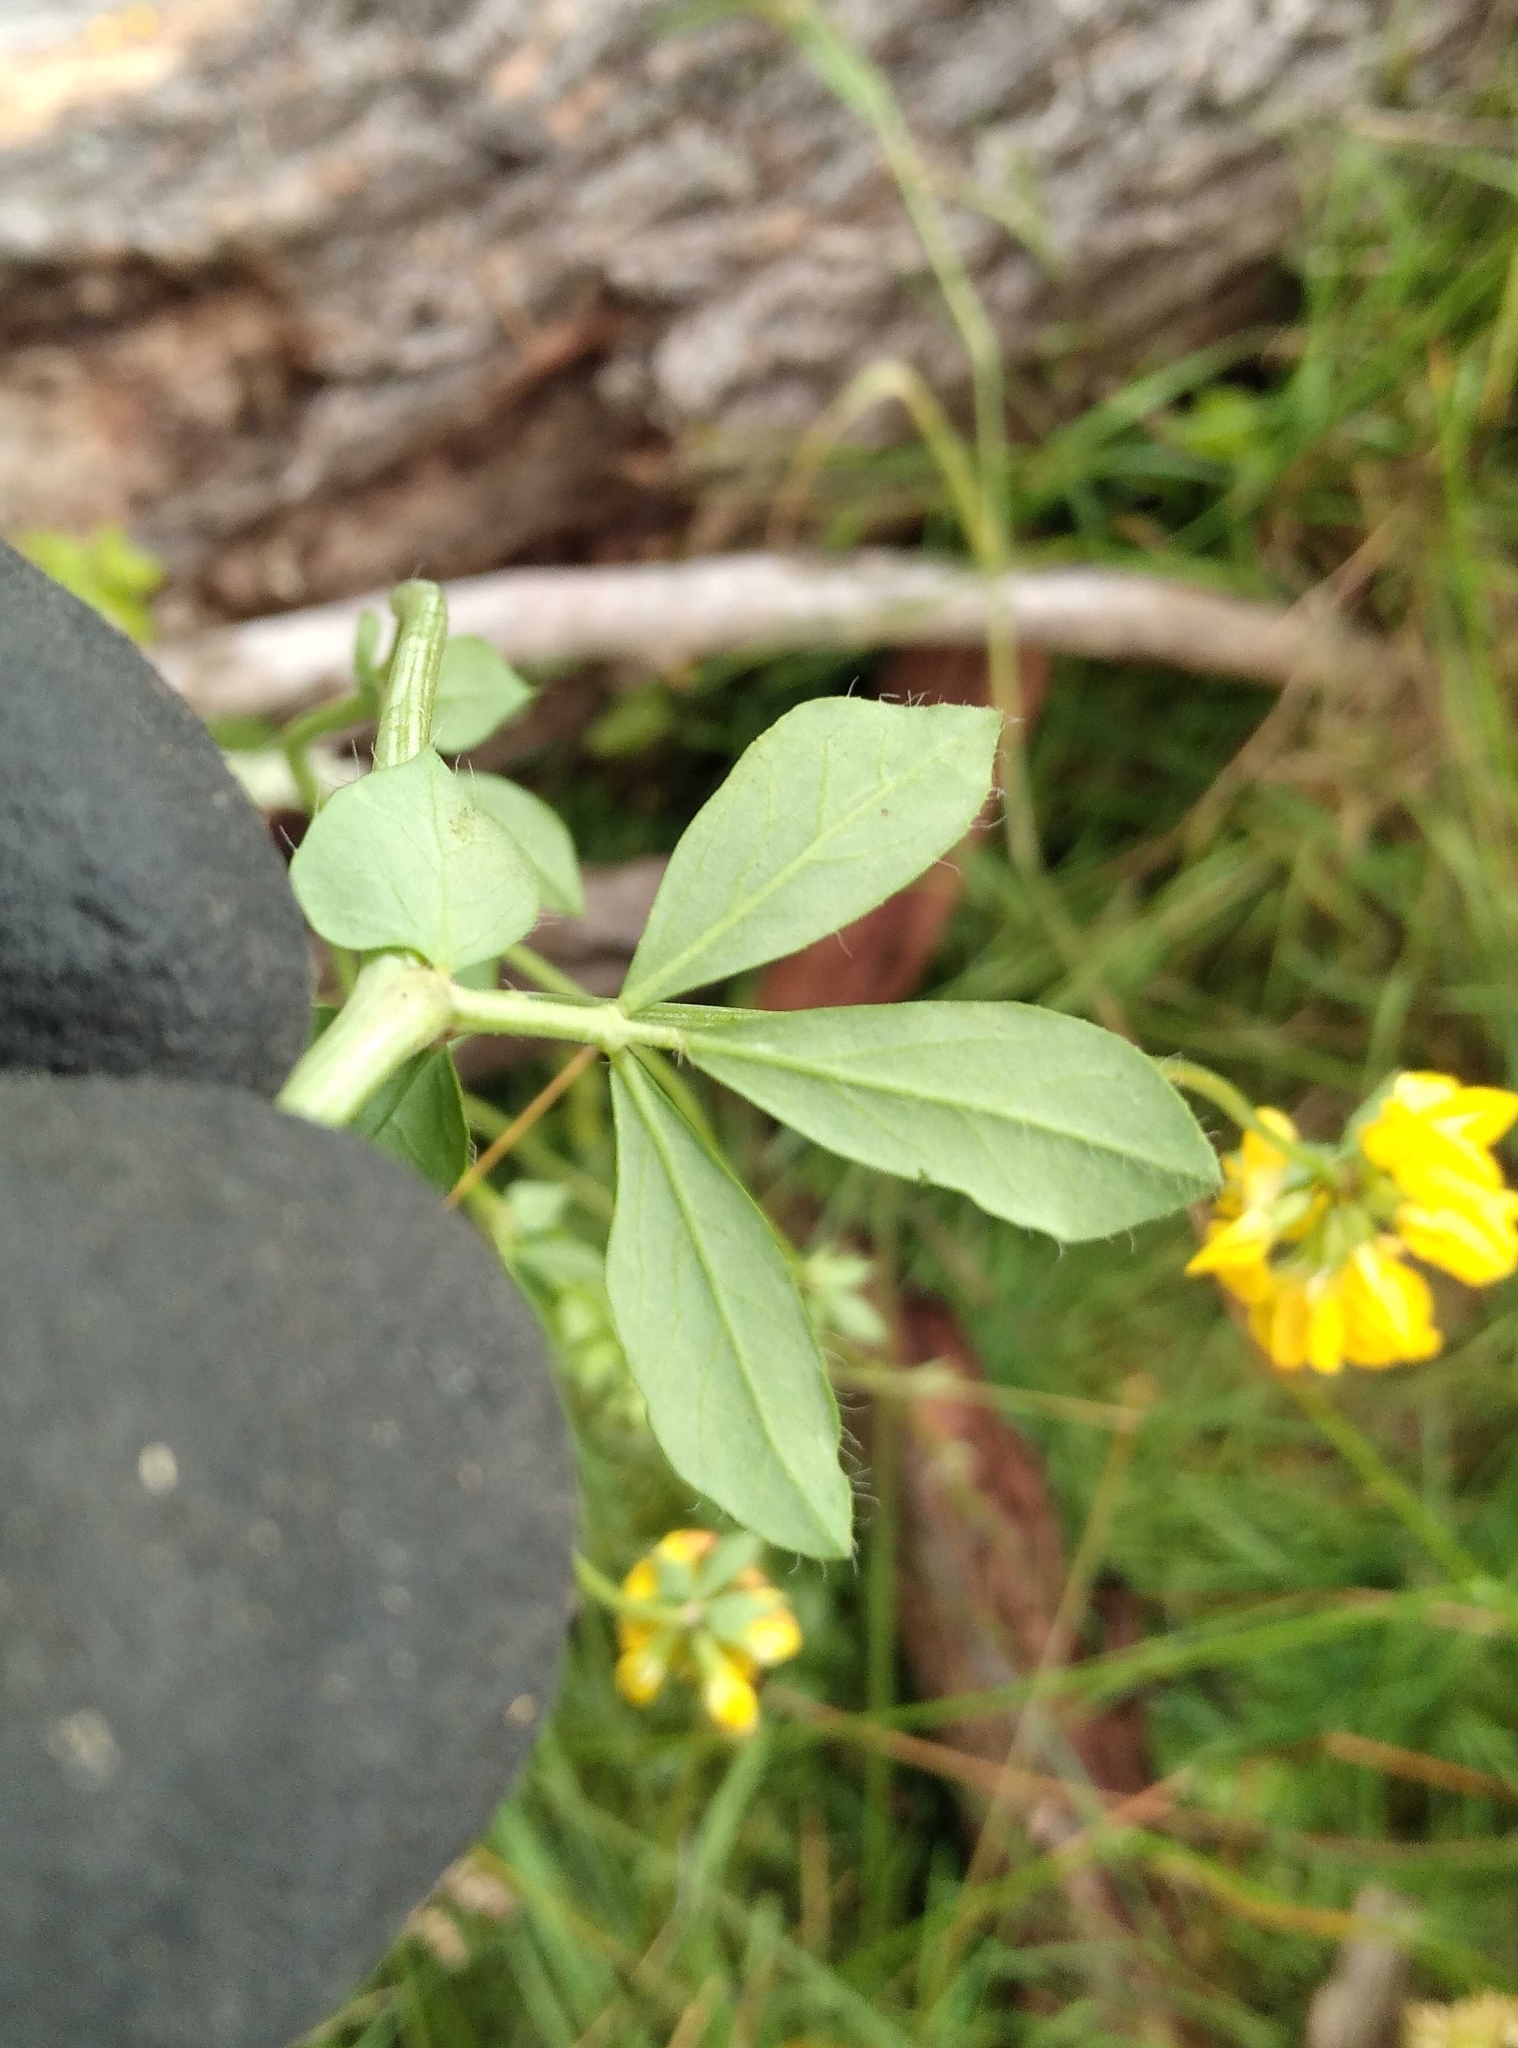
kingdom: Plantae
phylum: Tracheophyta
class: Magnoliopsida
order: Fabales
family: Fabaceae
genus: Lotus
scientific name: Lotus pedunculatus
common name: Greater birdsfoot-trefoil
